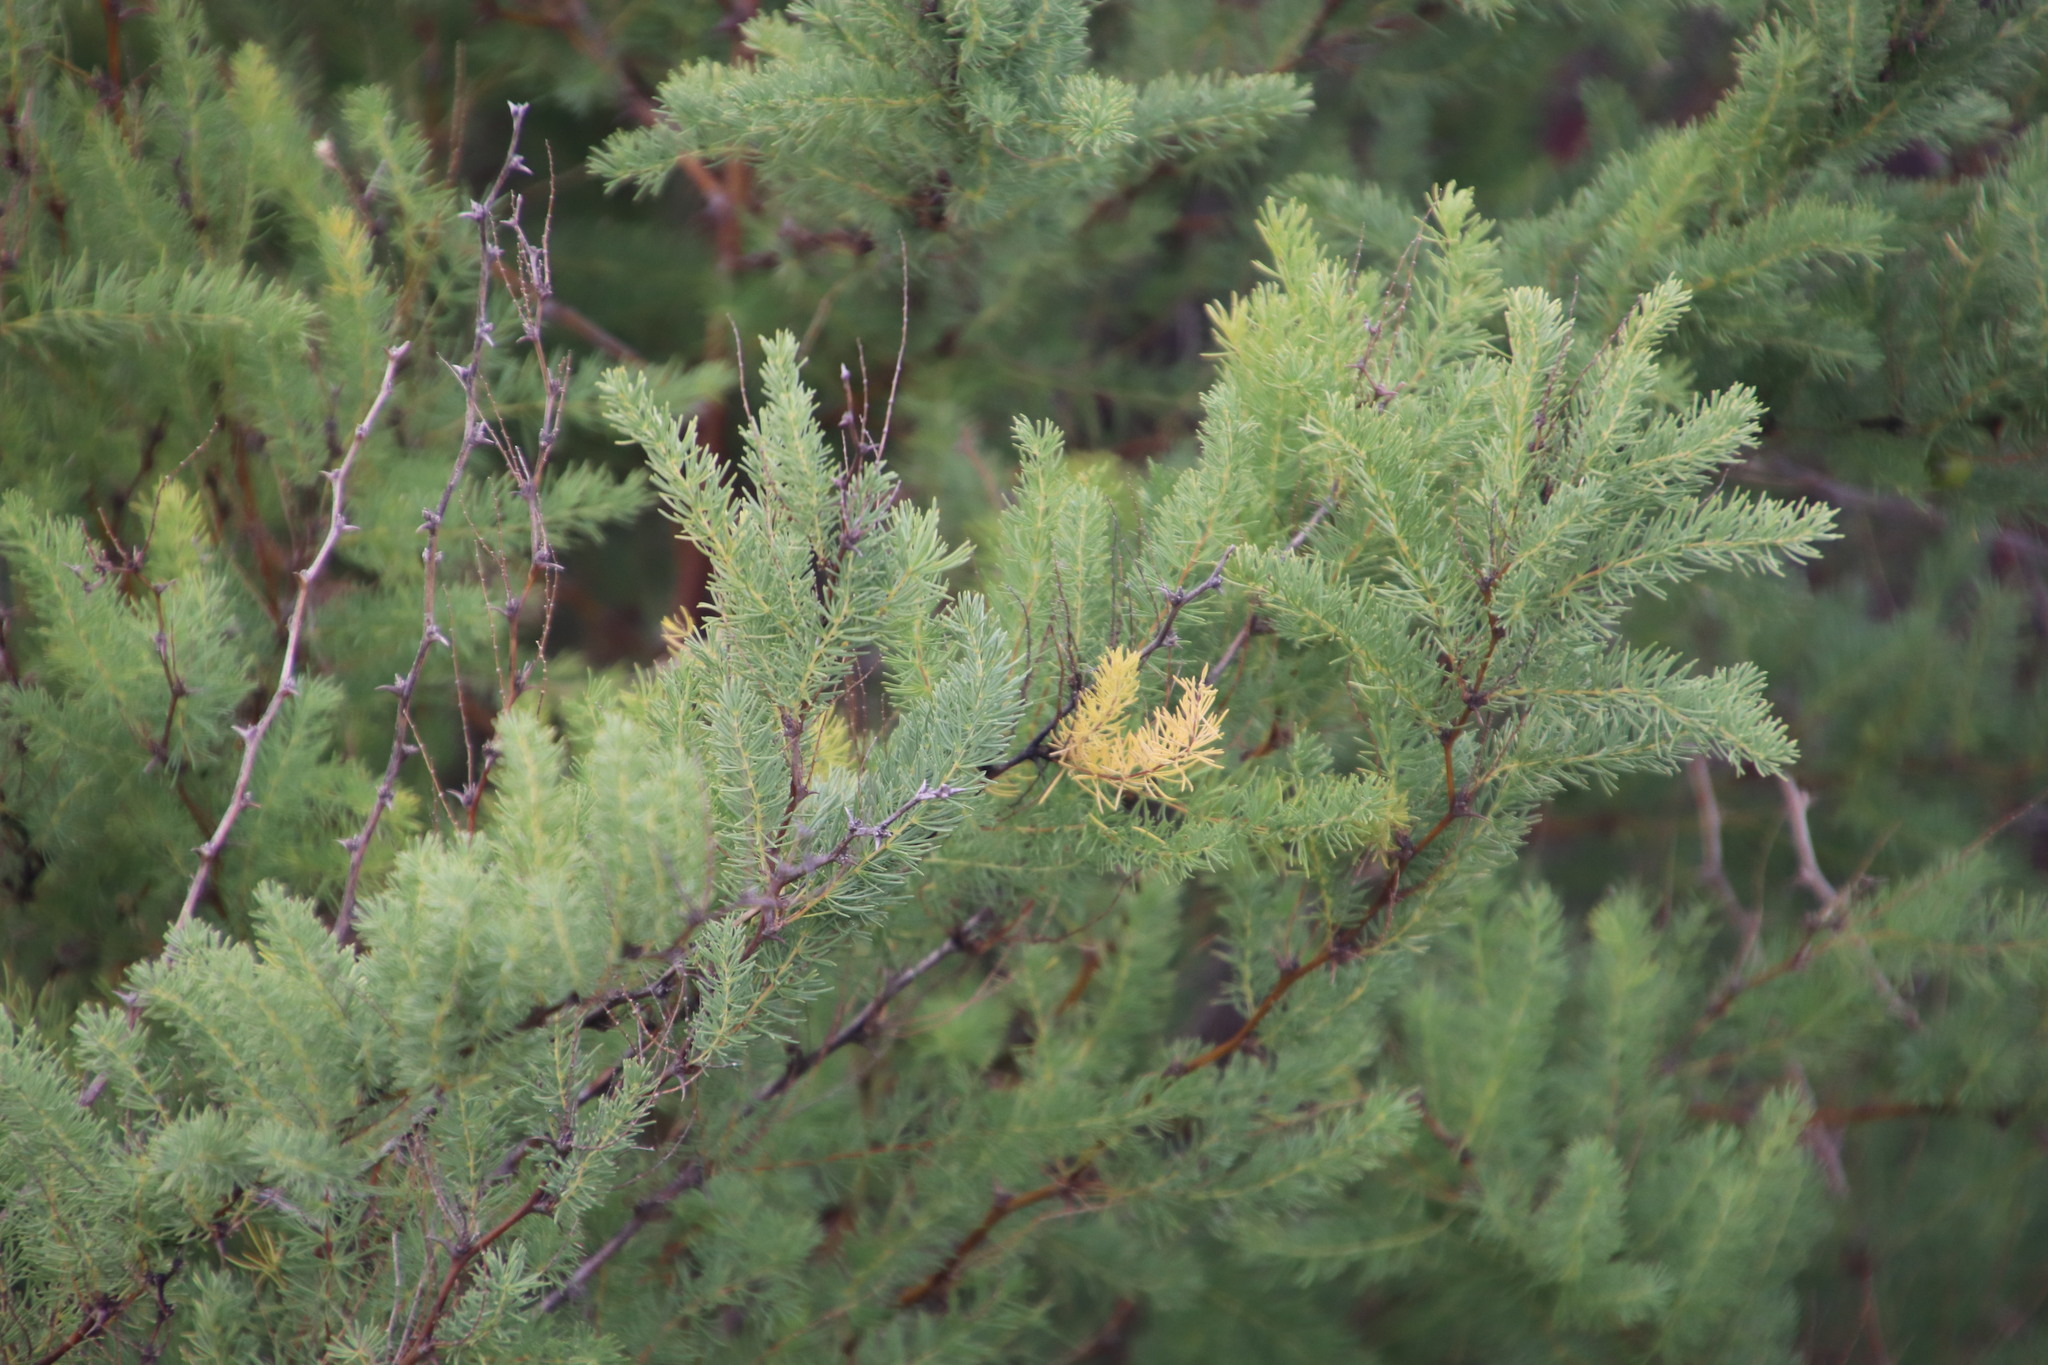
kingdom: Plantae
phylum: Tracheophyta
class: Liliopsida
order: Asparagales
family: Asparagaceae
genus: Asparagus
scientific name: Asparagus rubicundus
